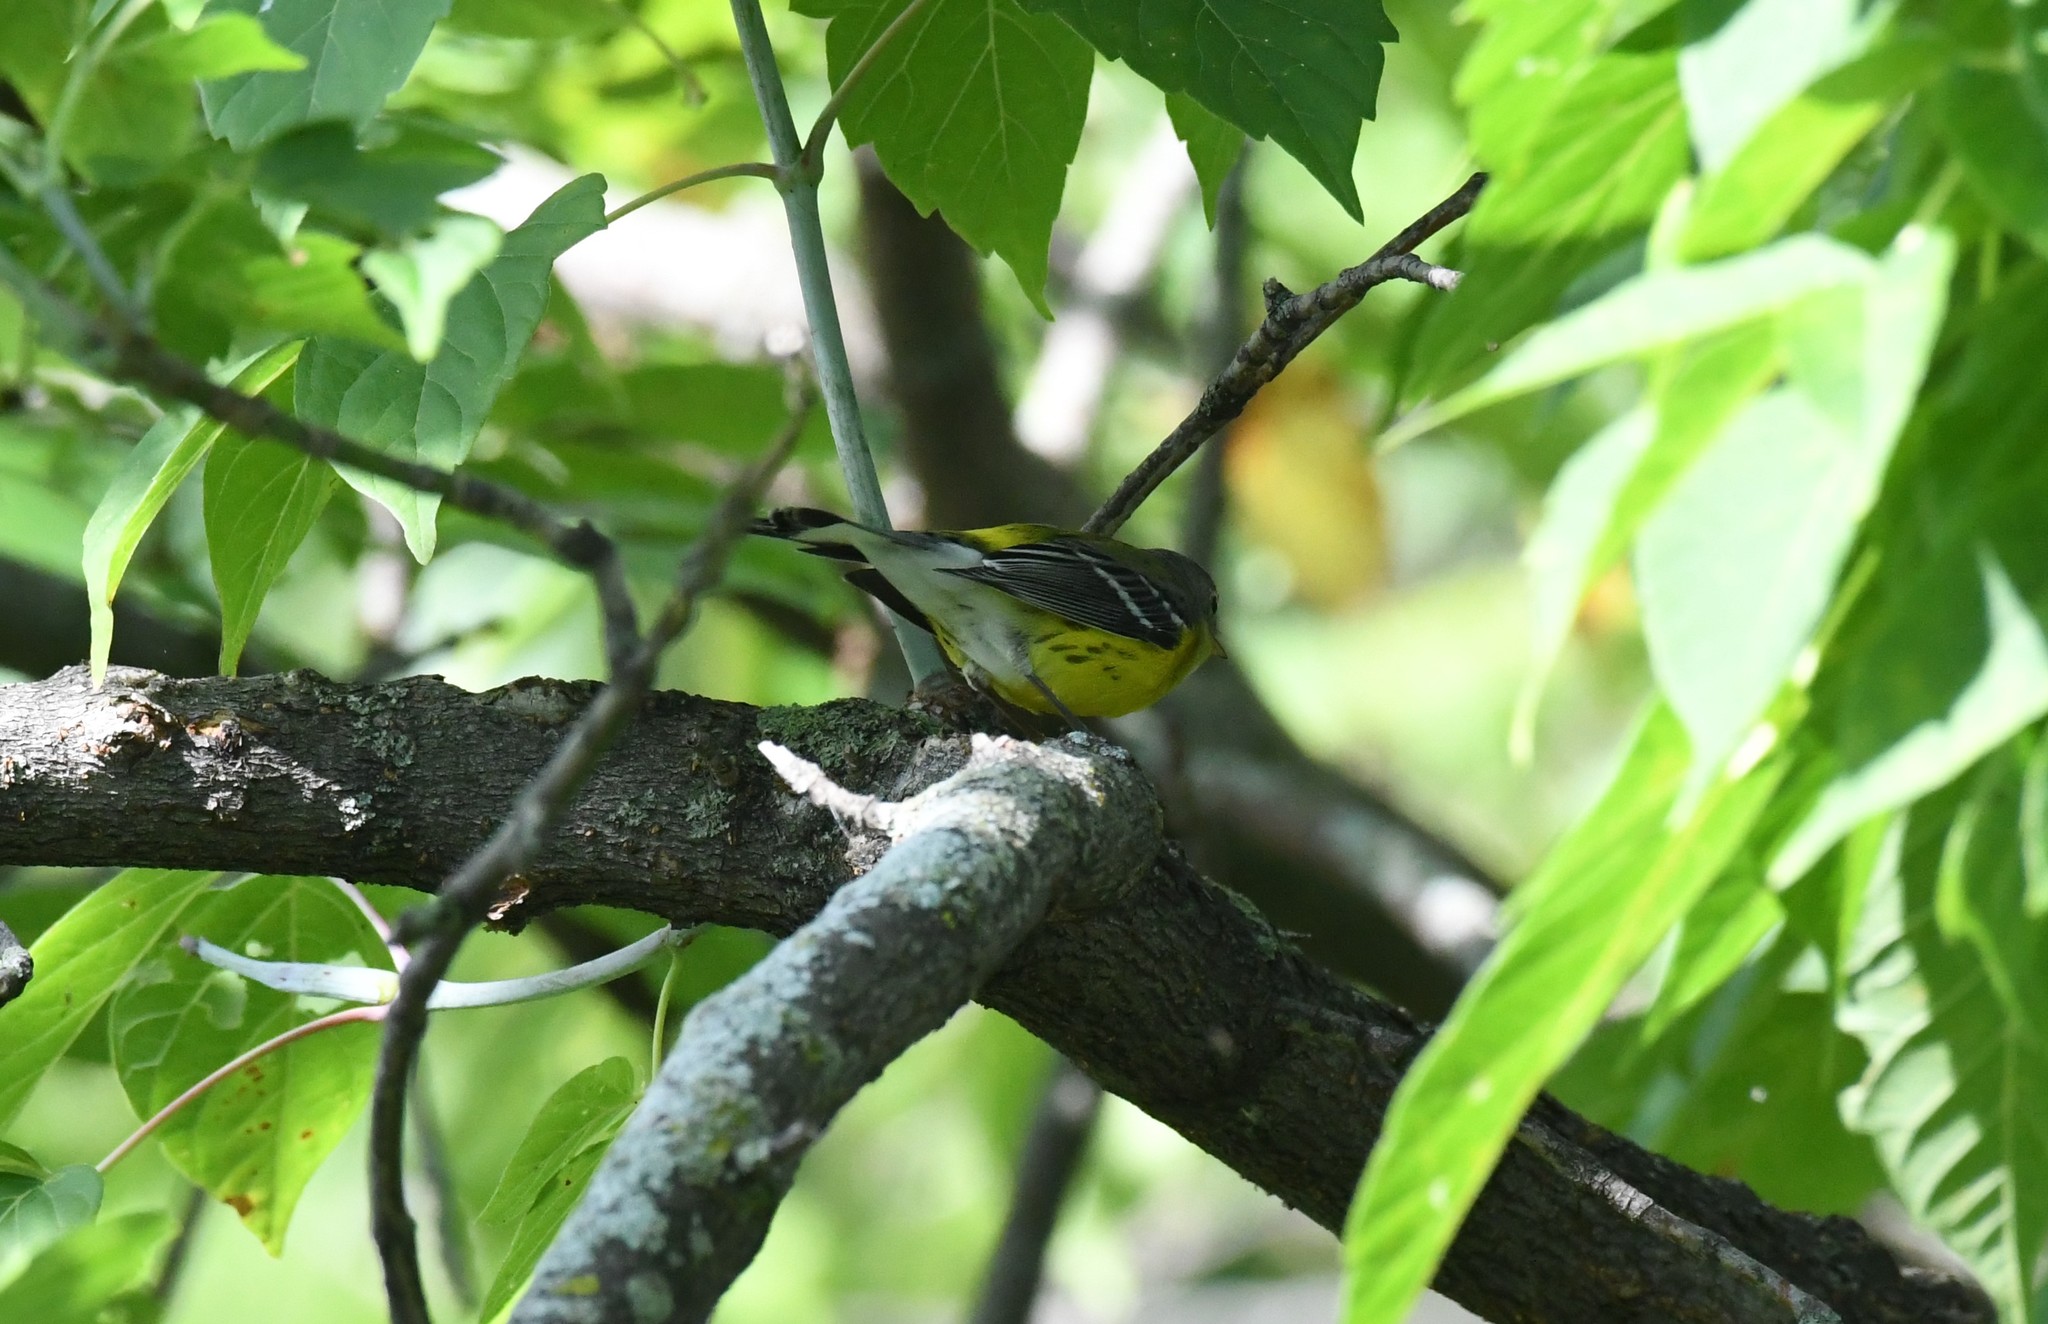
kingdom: Animalia
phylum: Chordata
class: Aves
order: Passeriformes
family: Parulidae
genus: Setophaga
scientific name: Setophaga magnolia
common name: Magnolia warbler
